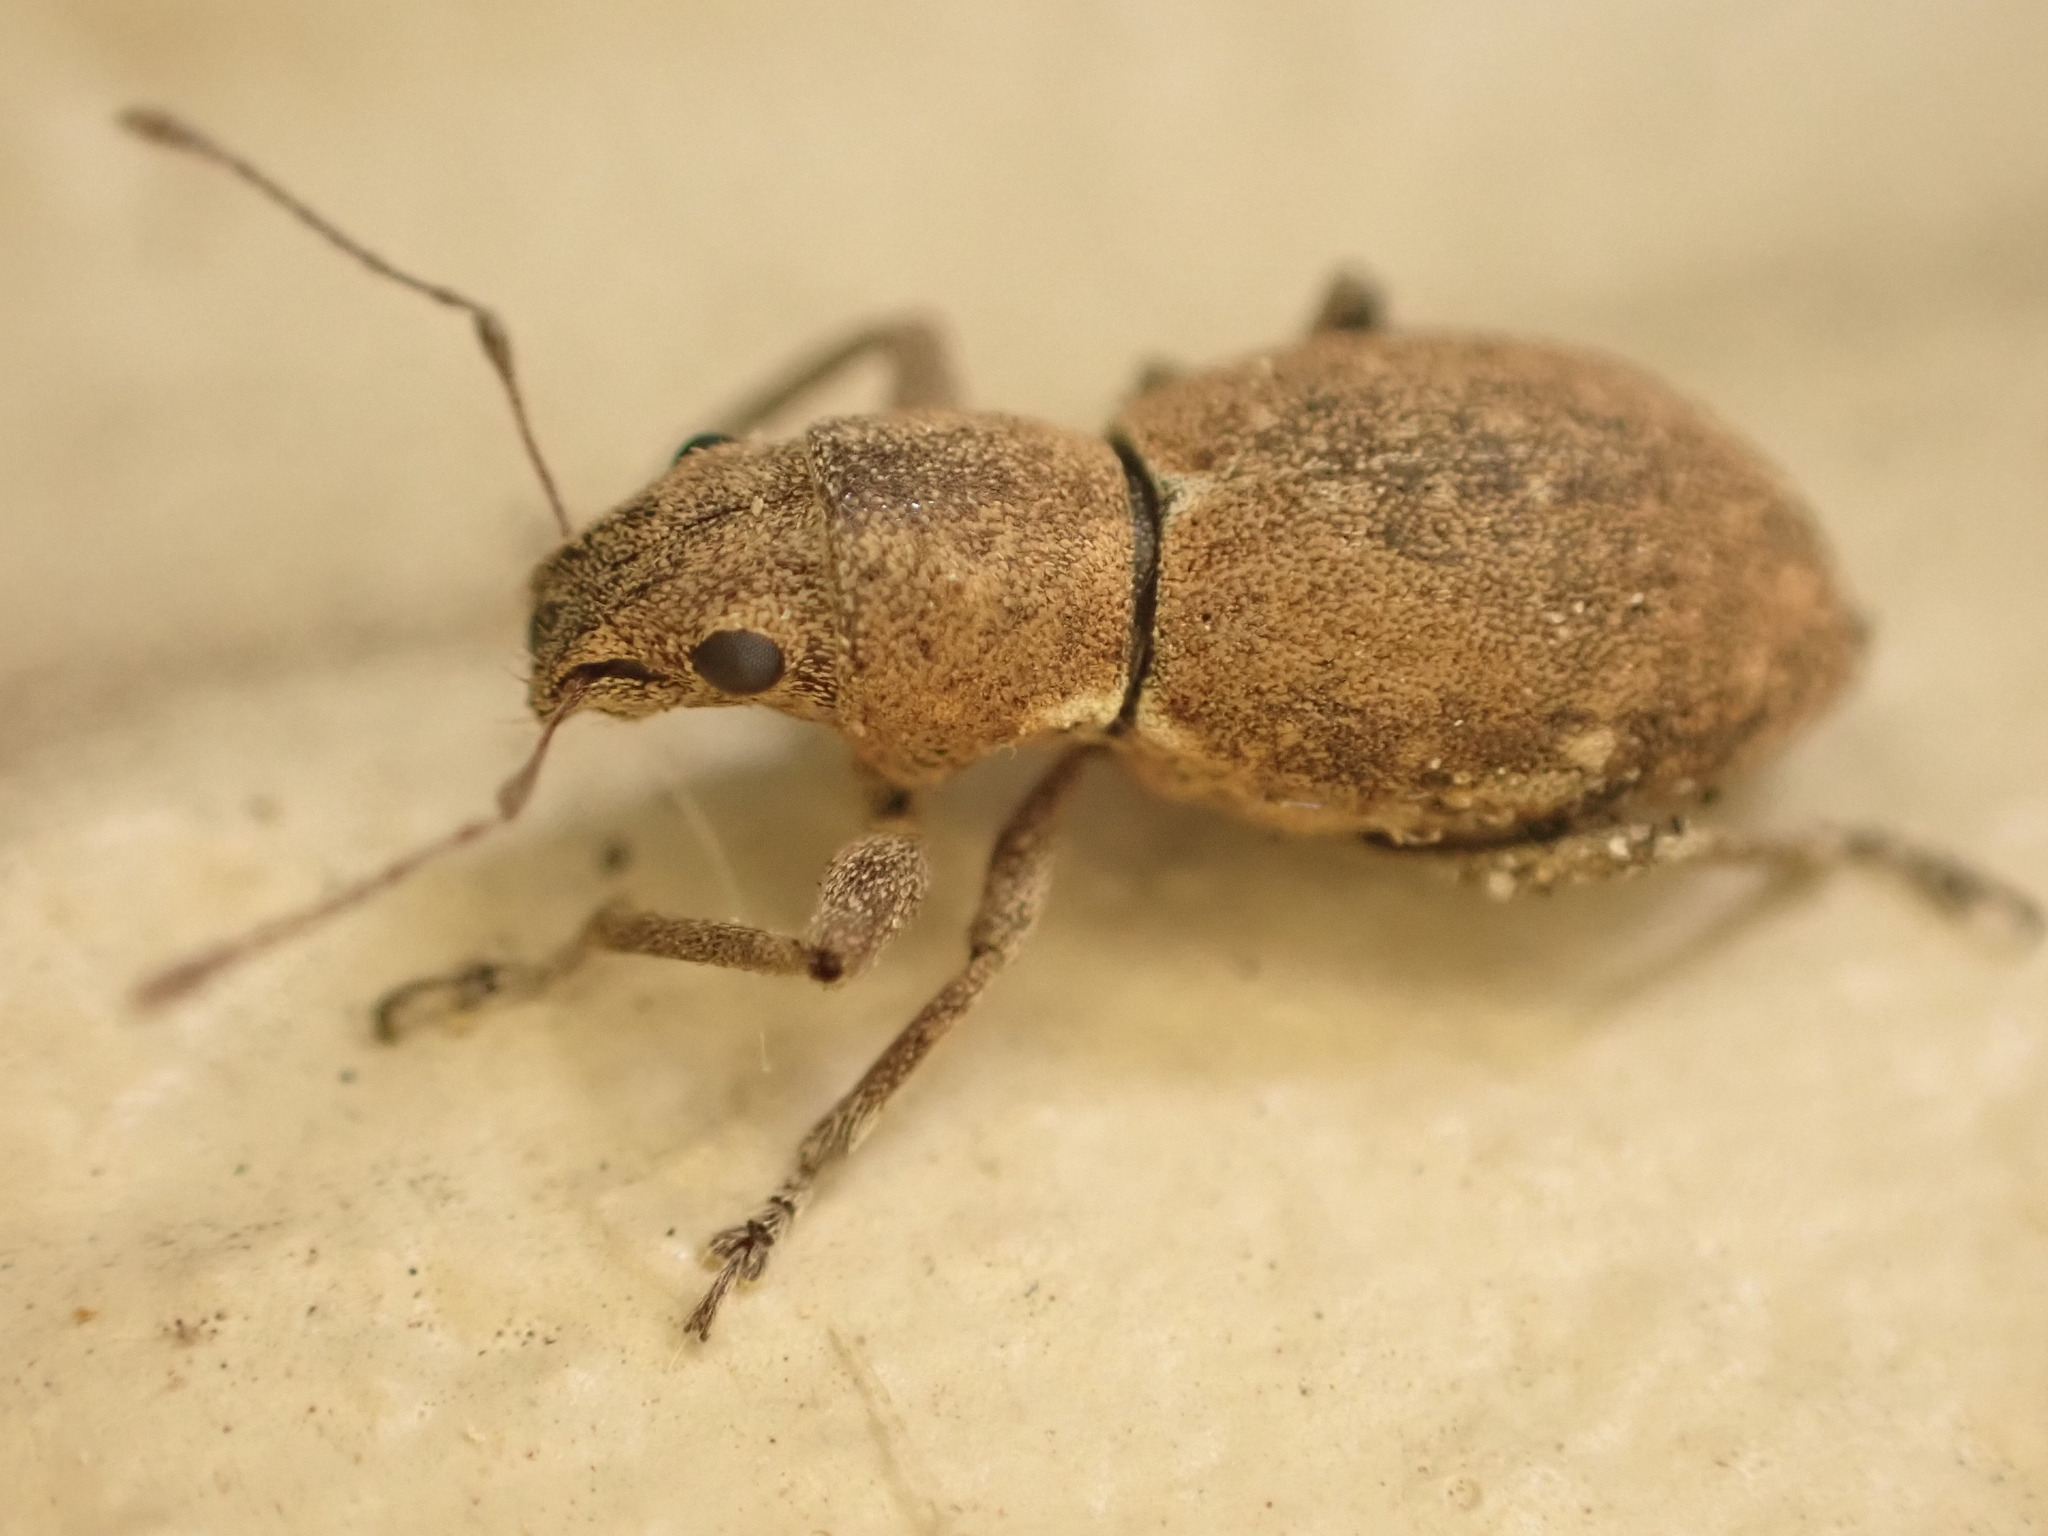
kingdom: Animalia
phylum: Arthropoda
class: Insecta
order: Coleoptera
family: Curculionidae
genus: Naupactus
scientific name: Naupactus cervinus
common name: Fuller rose beetle
